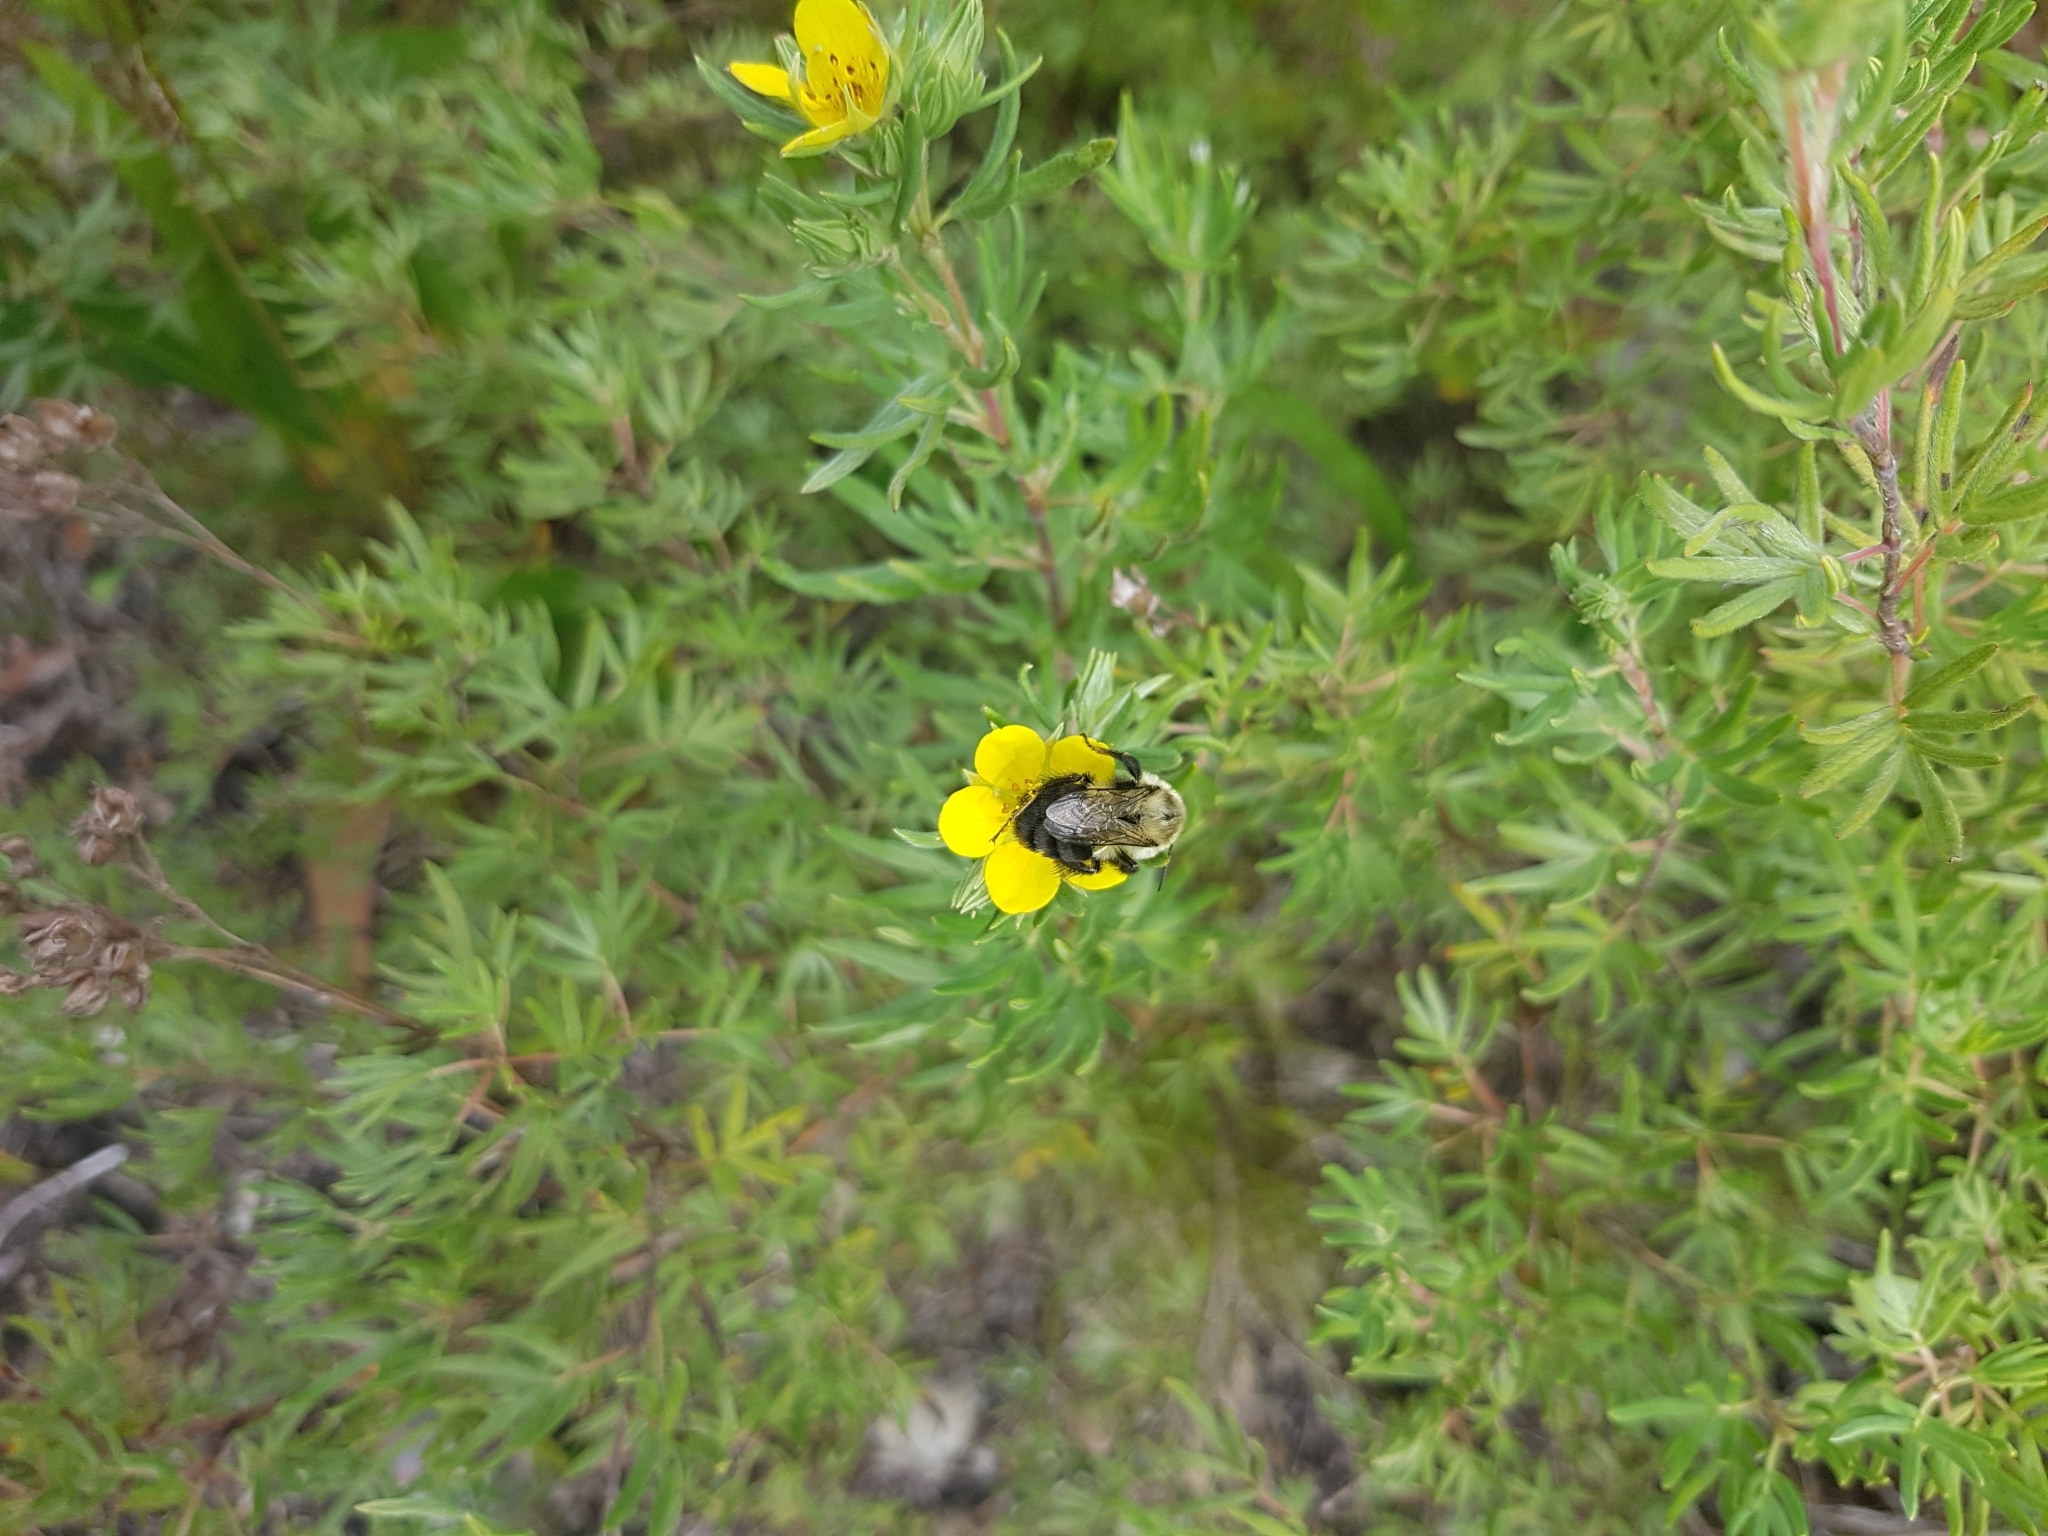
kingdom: Animalia
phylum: Arthropoda
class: Insecta
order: Hymenoptera
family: Apidae
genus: Bombus
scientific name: Bombus impatiens
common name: Common eastern bumble bee
